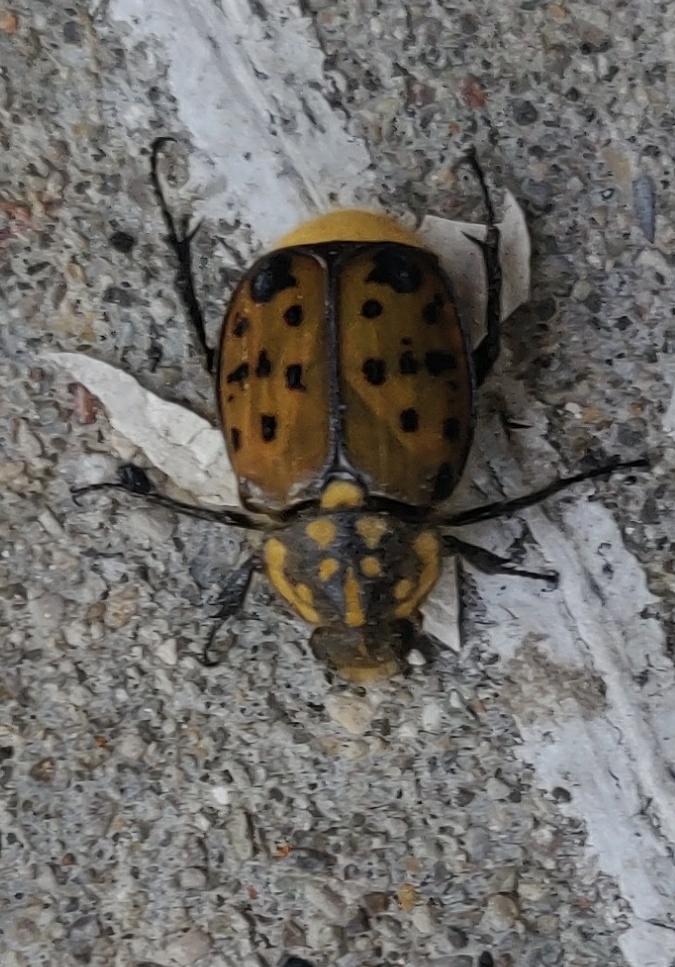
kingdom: Animalia
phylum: Arthropoda
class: Insecta
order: Coleoptera
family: Scarabaeidae
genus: Gnorimella
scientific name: Gnorimella maculosa
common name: Maculate flower beetle
